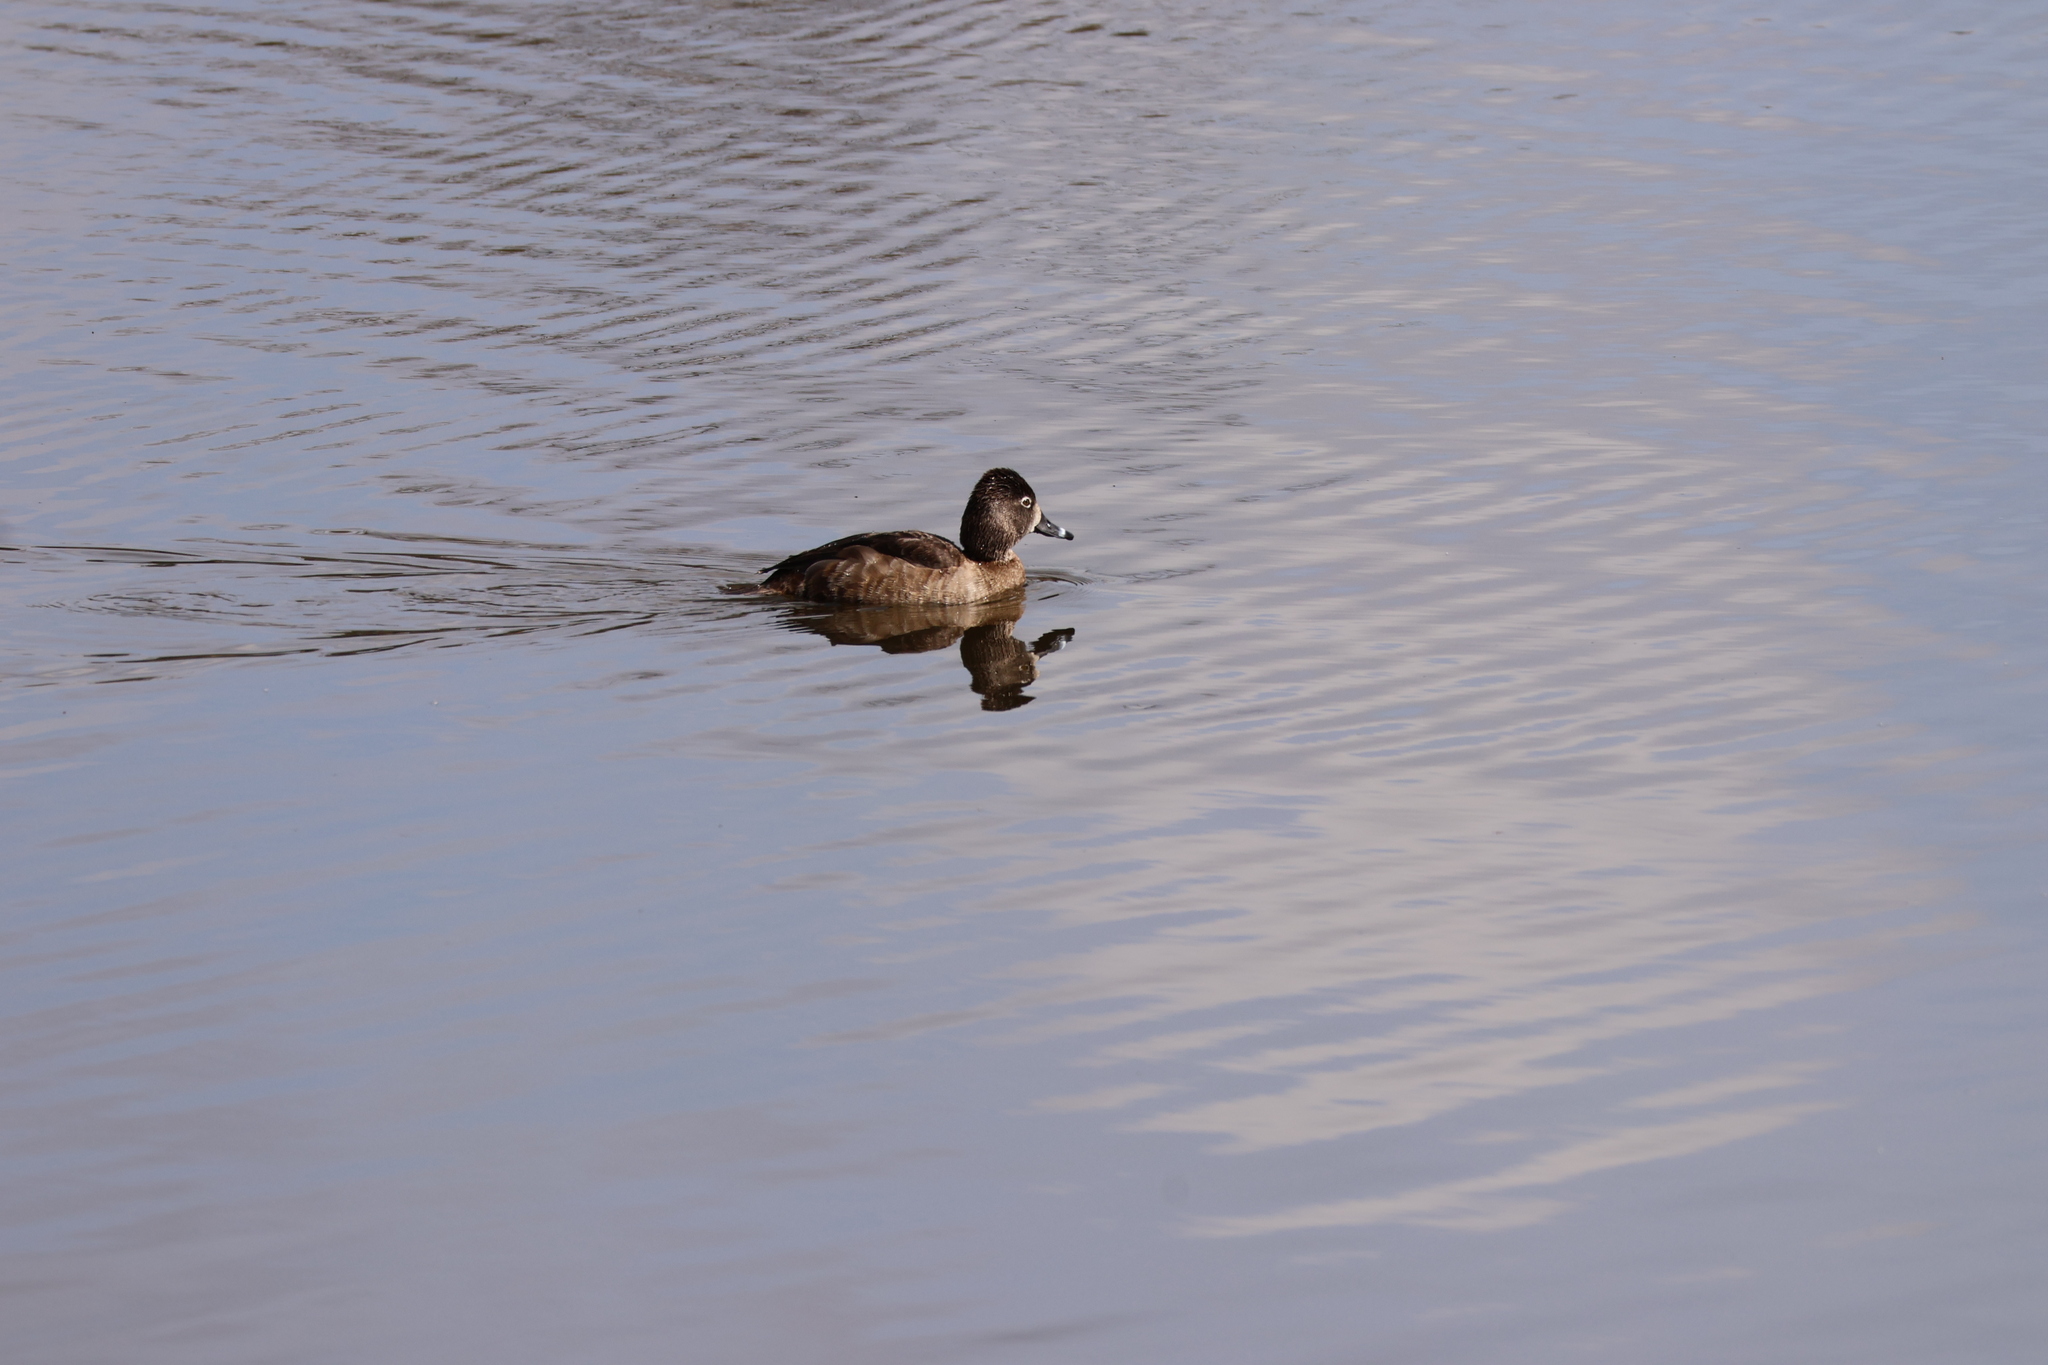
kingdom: Animalia
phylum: Chordata
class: Aves
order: Anseriformes
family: Anatidae
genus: Aythya
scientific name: Aythya collaris
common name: Ring-necked duck
